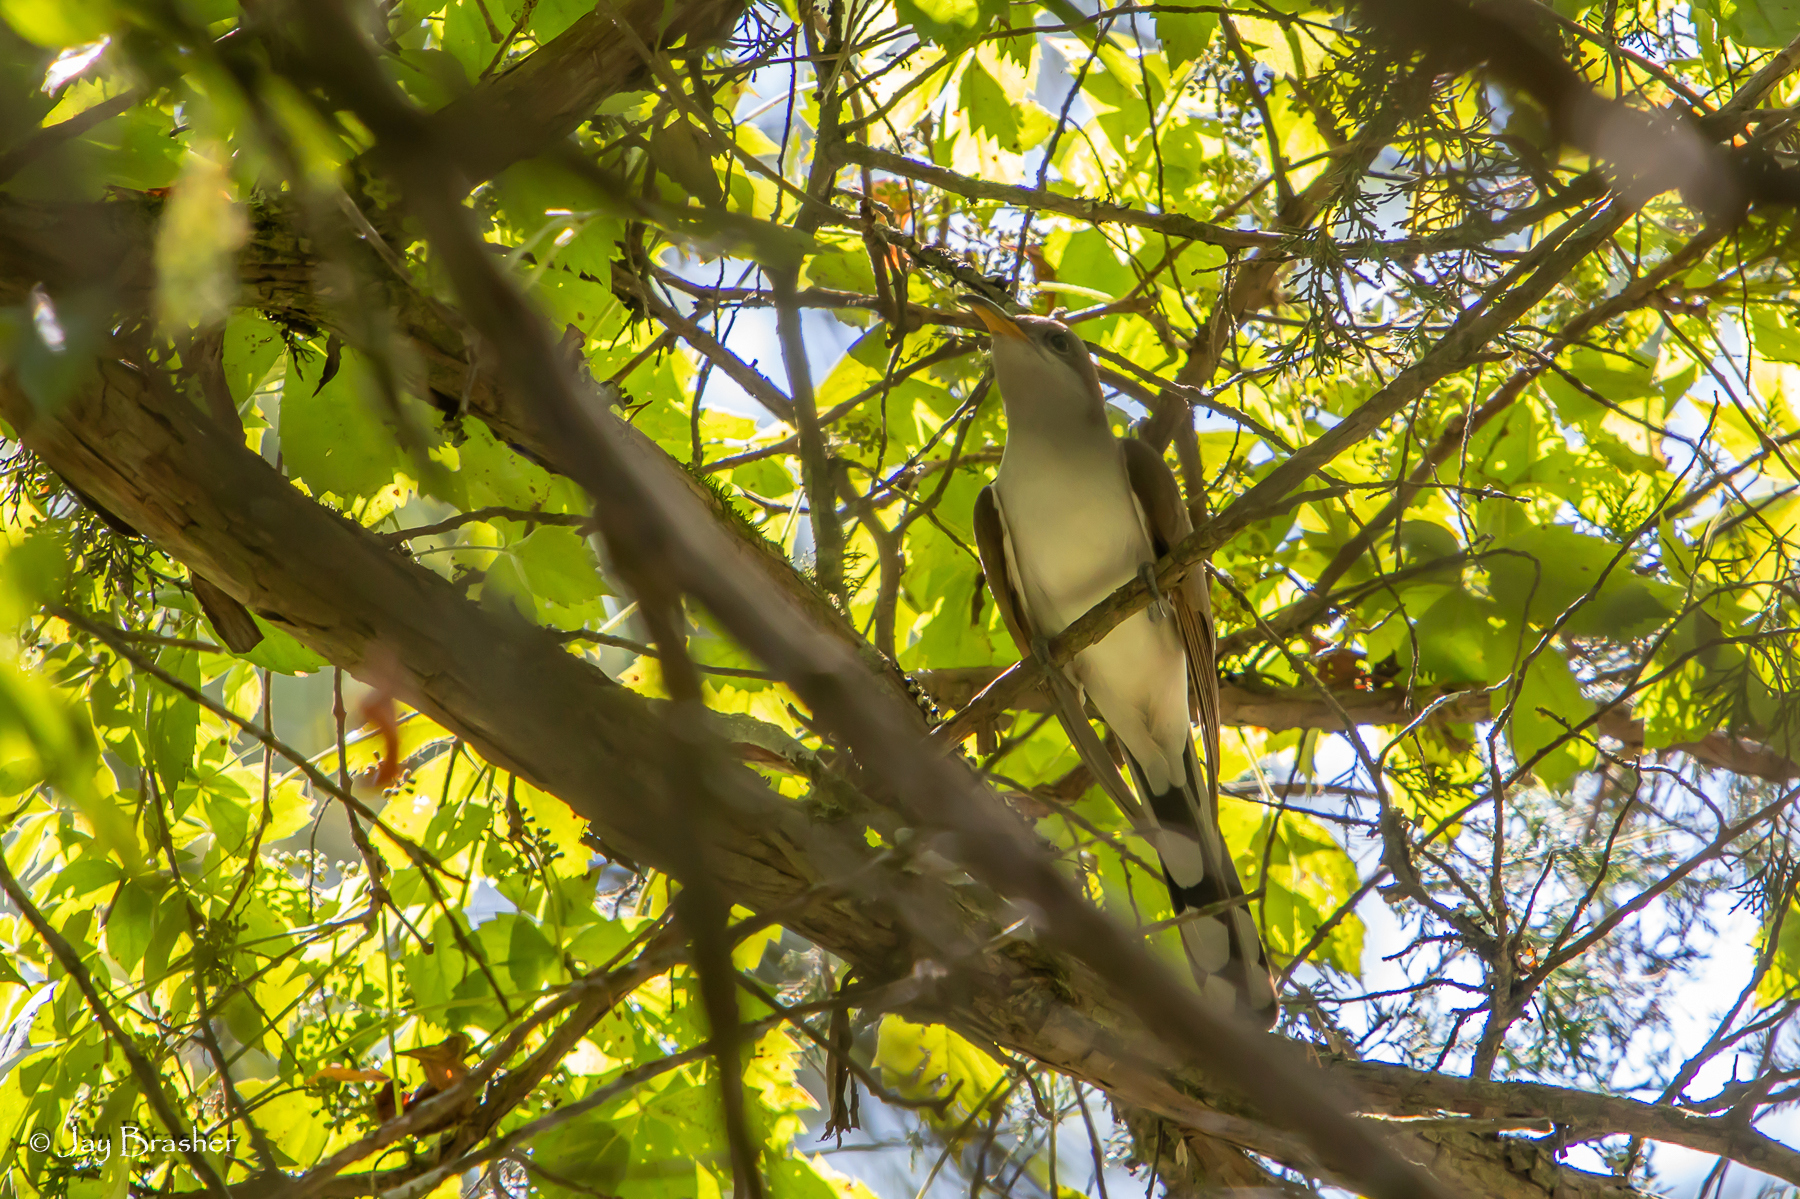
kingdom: Animalia
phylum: Chordata
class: Aves
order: Cuculiformes
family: Cuculidae
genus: Coccyzus
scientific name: Coccyzus americanus
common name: Yellow-billed cuckoo
